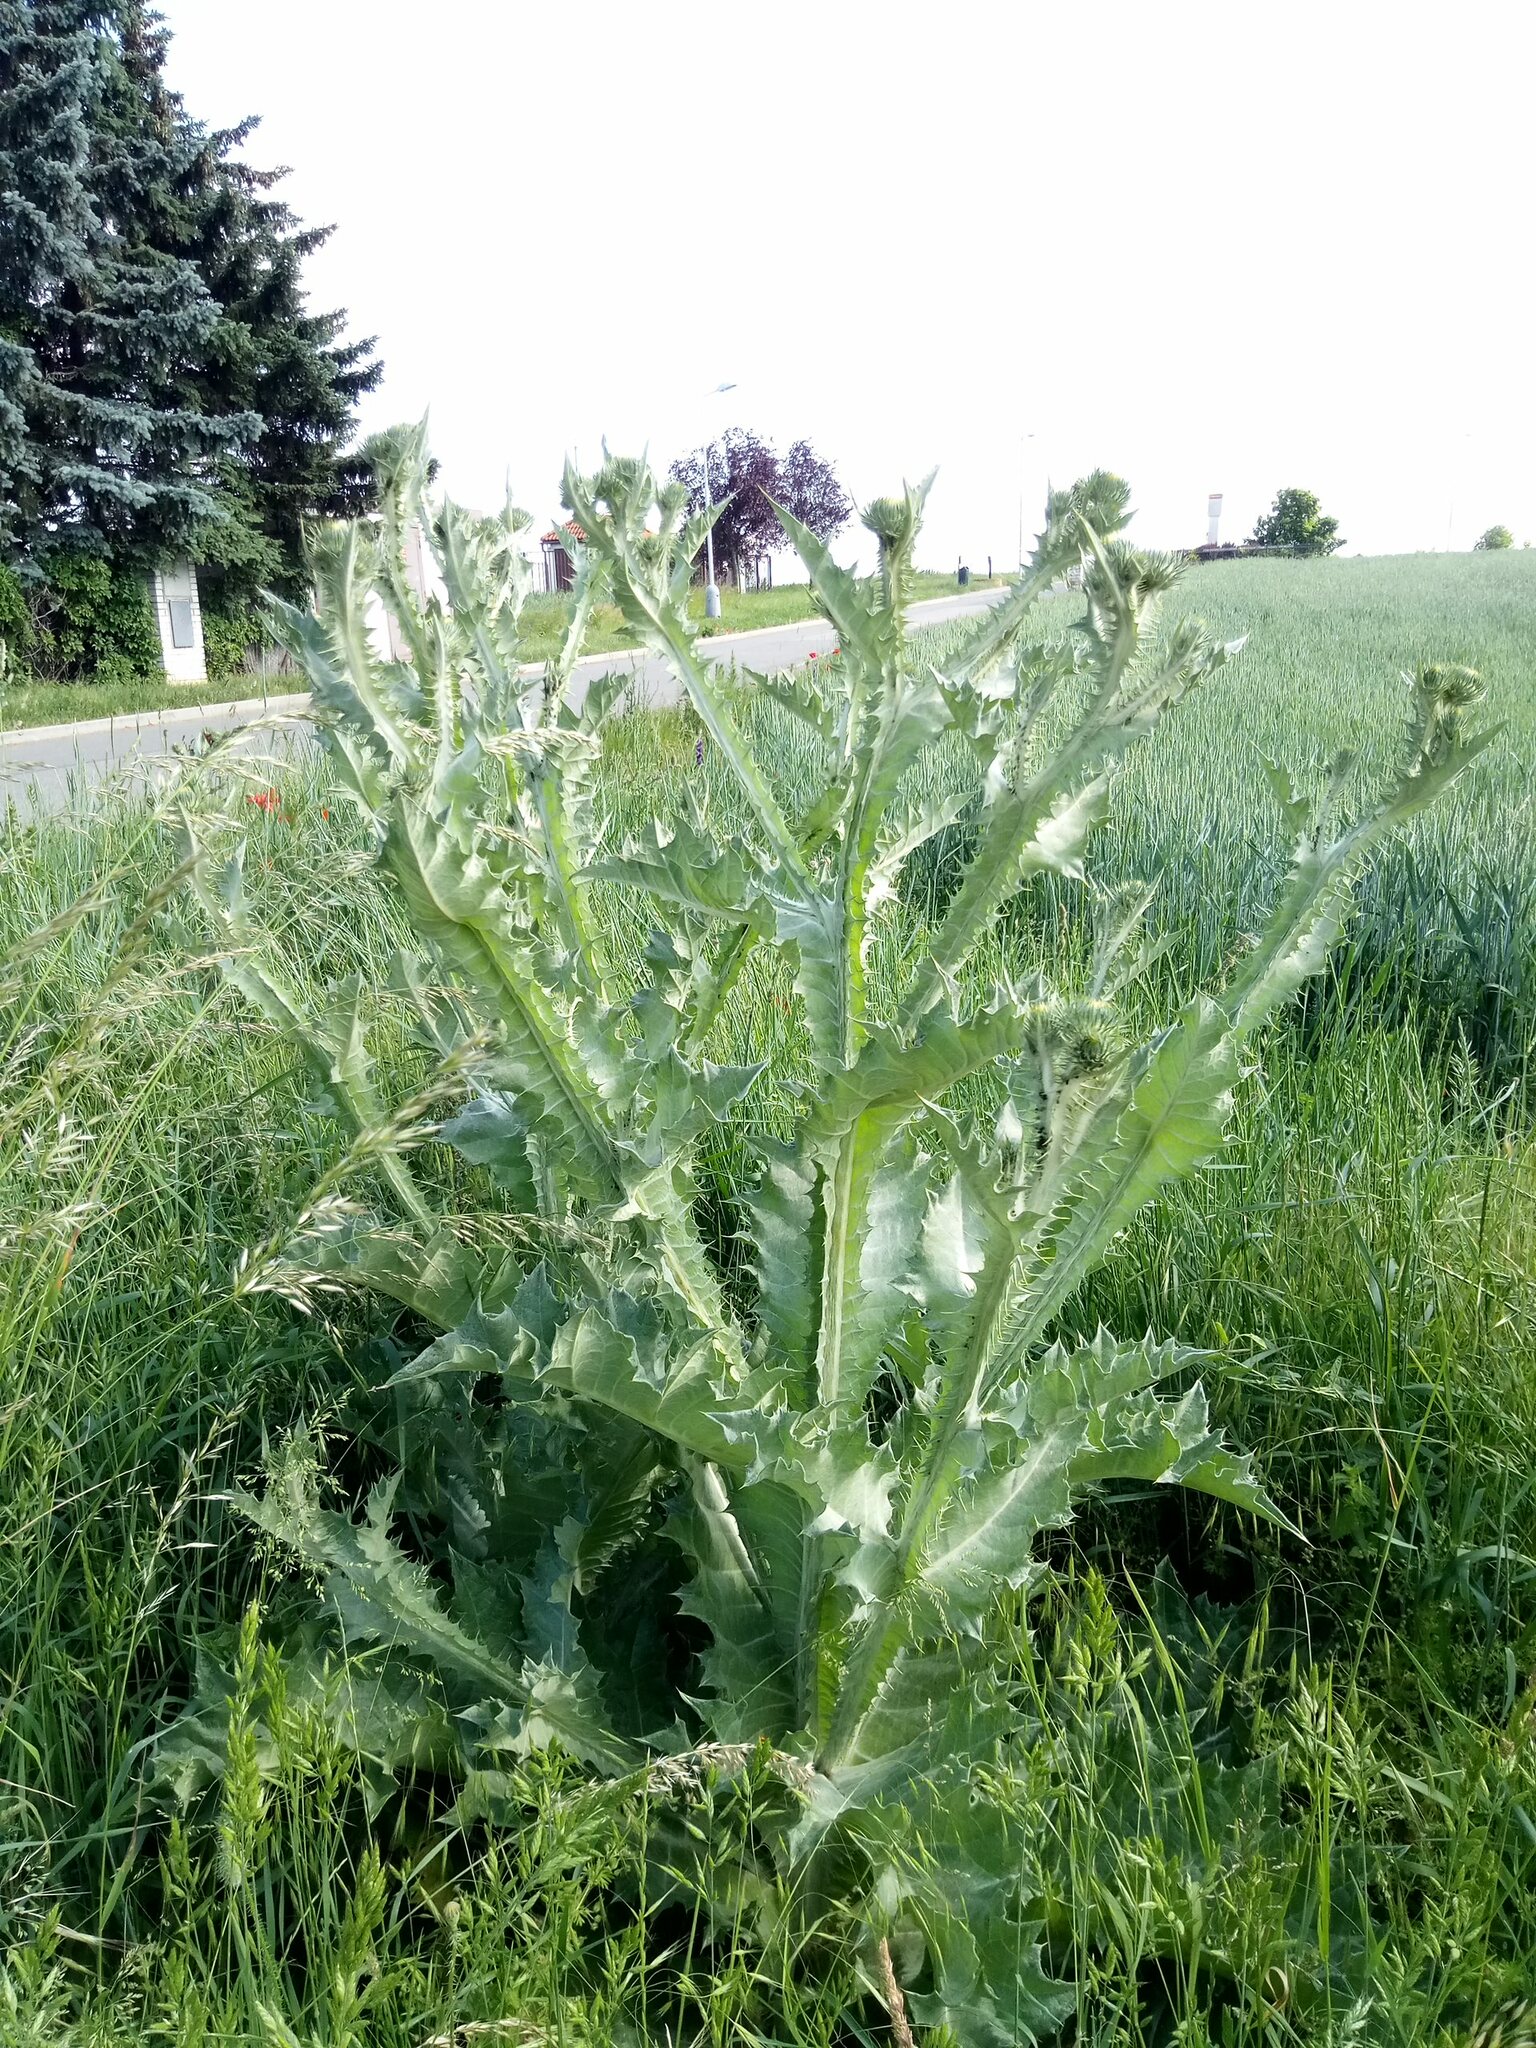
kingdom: Plantae
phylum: Tracheophyta
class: Magnoliopsida
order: Asterales
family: Asteraceae
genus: Onopordum
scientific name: Onopordum acanthium
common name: Scotch thistle
